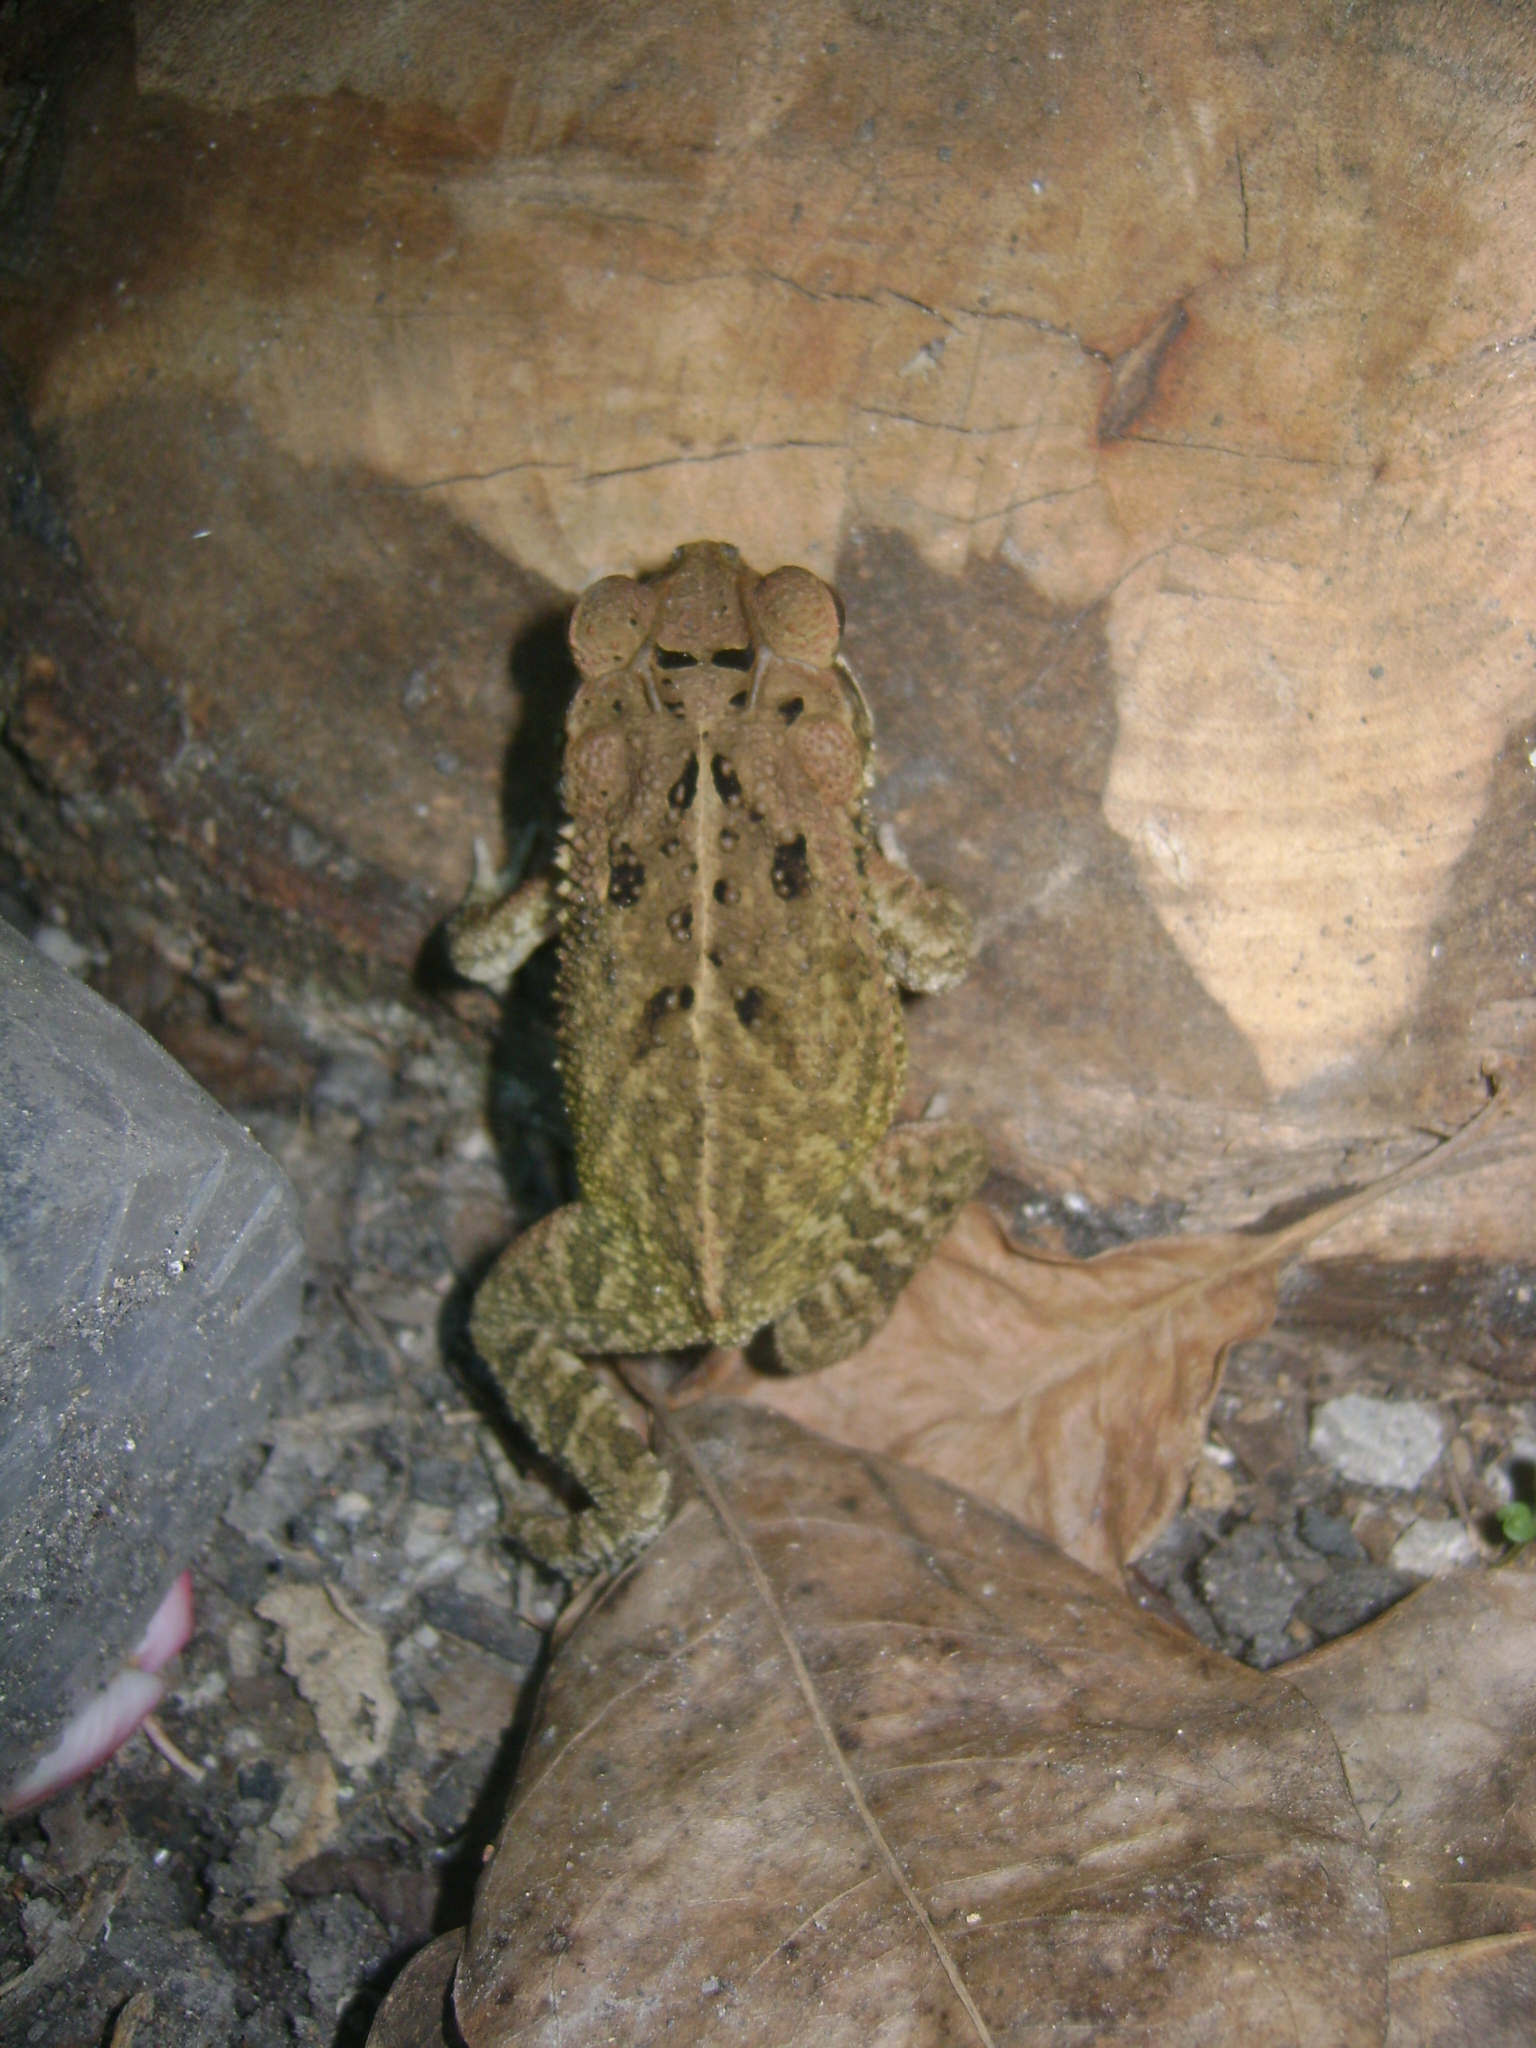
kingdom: Animalia
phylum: Chordata
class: Amphibia
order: Anura
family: Bufonidae
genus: Incilius
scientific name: Incilius valliceps
